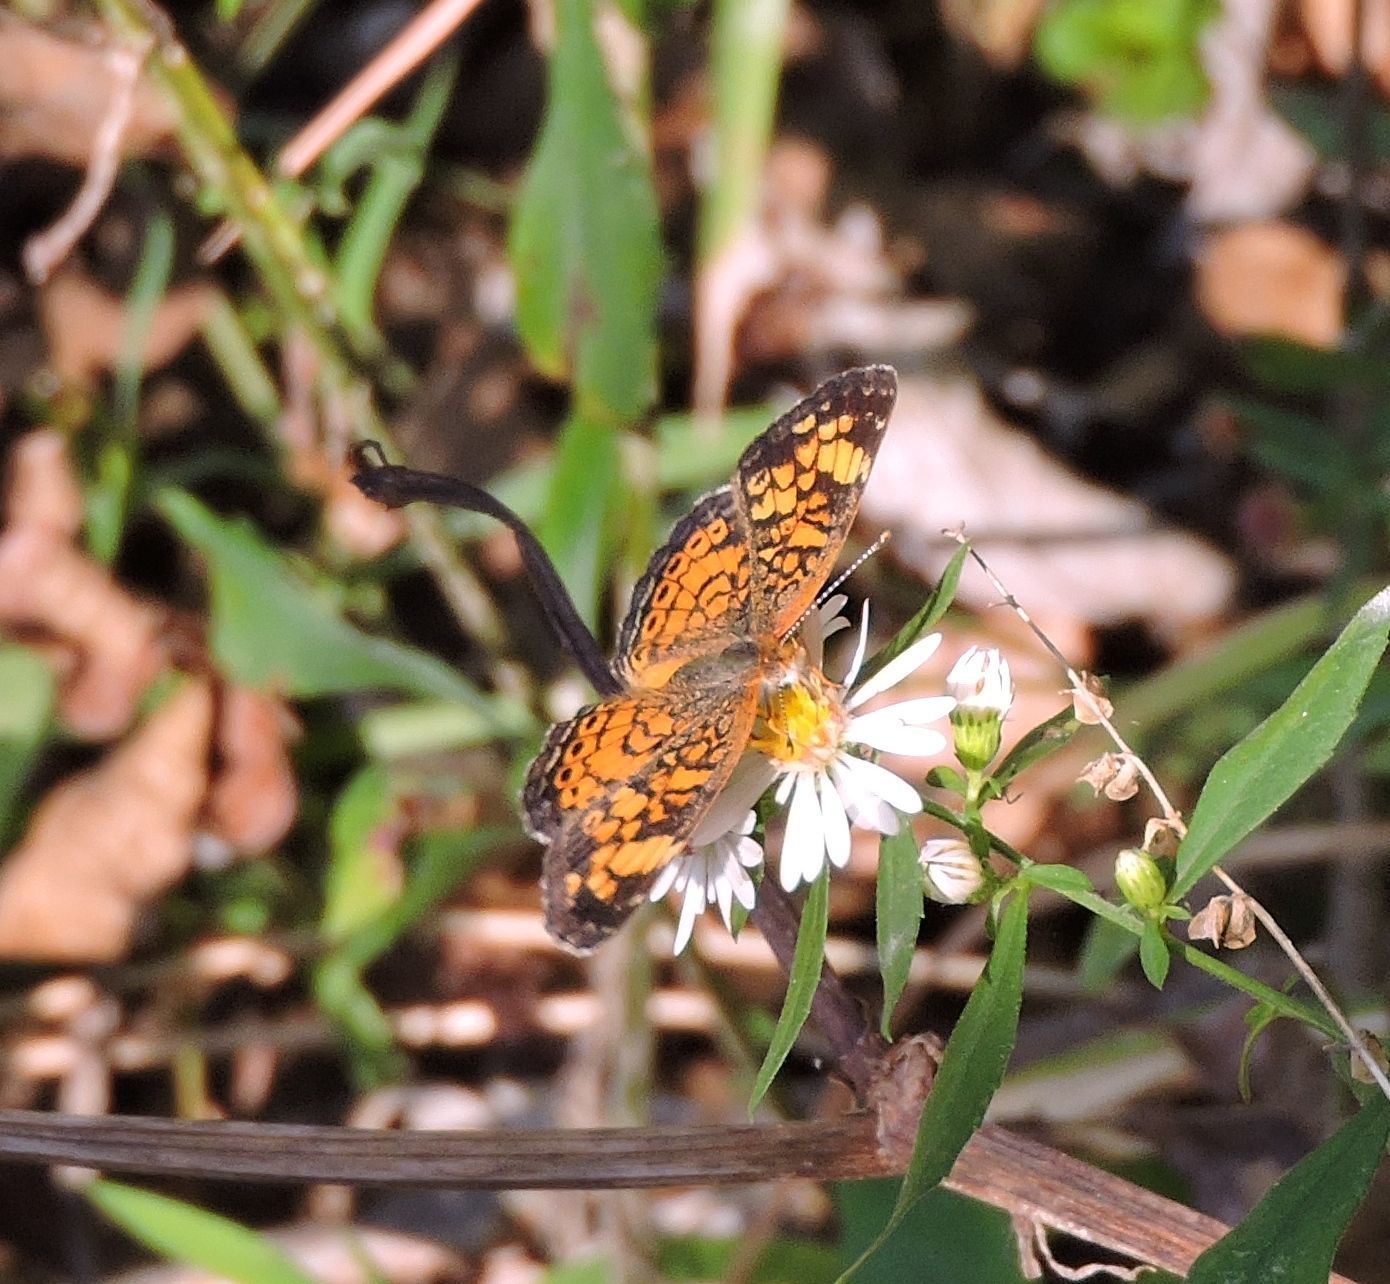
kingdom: Animalia
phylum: Arthropoda
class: Insecta
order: Lepidoptera
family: Nymphalidae
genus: Phyciodes
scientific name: Phyciodes tharos
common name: Pearl crescent
